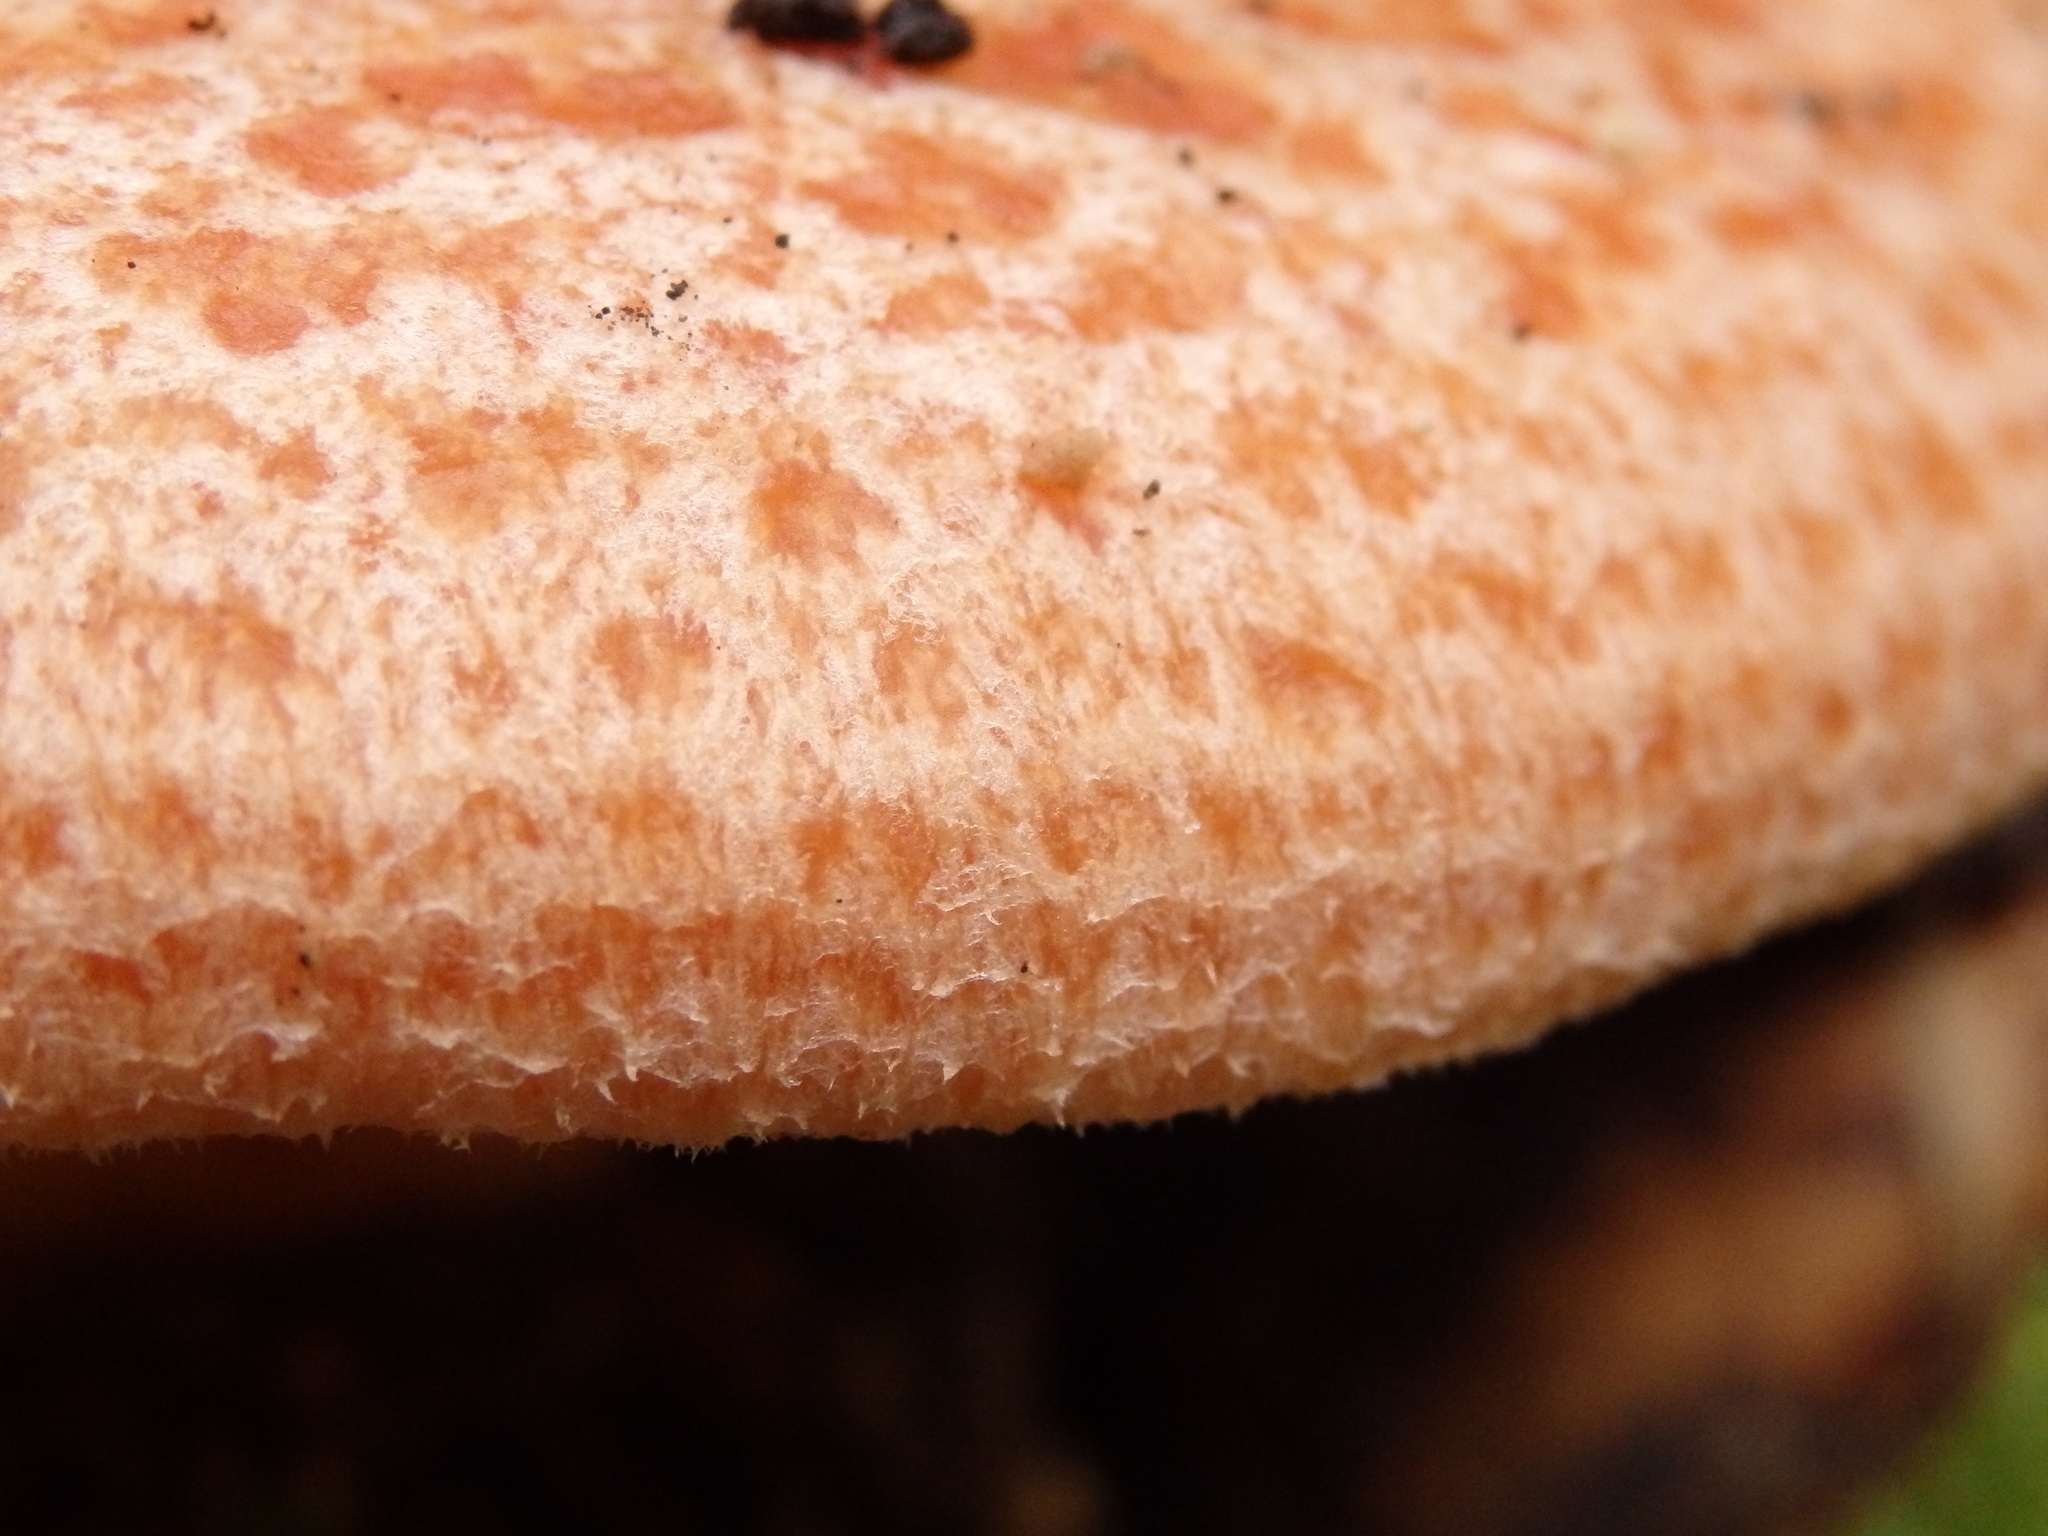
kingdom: Fungi
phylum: Basidiomycota
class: Agaricomycetes
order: Russulales
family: Russulaceae
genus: Lactarius
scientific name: Lactarius deliciosus
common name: Saffron milk-cap
